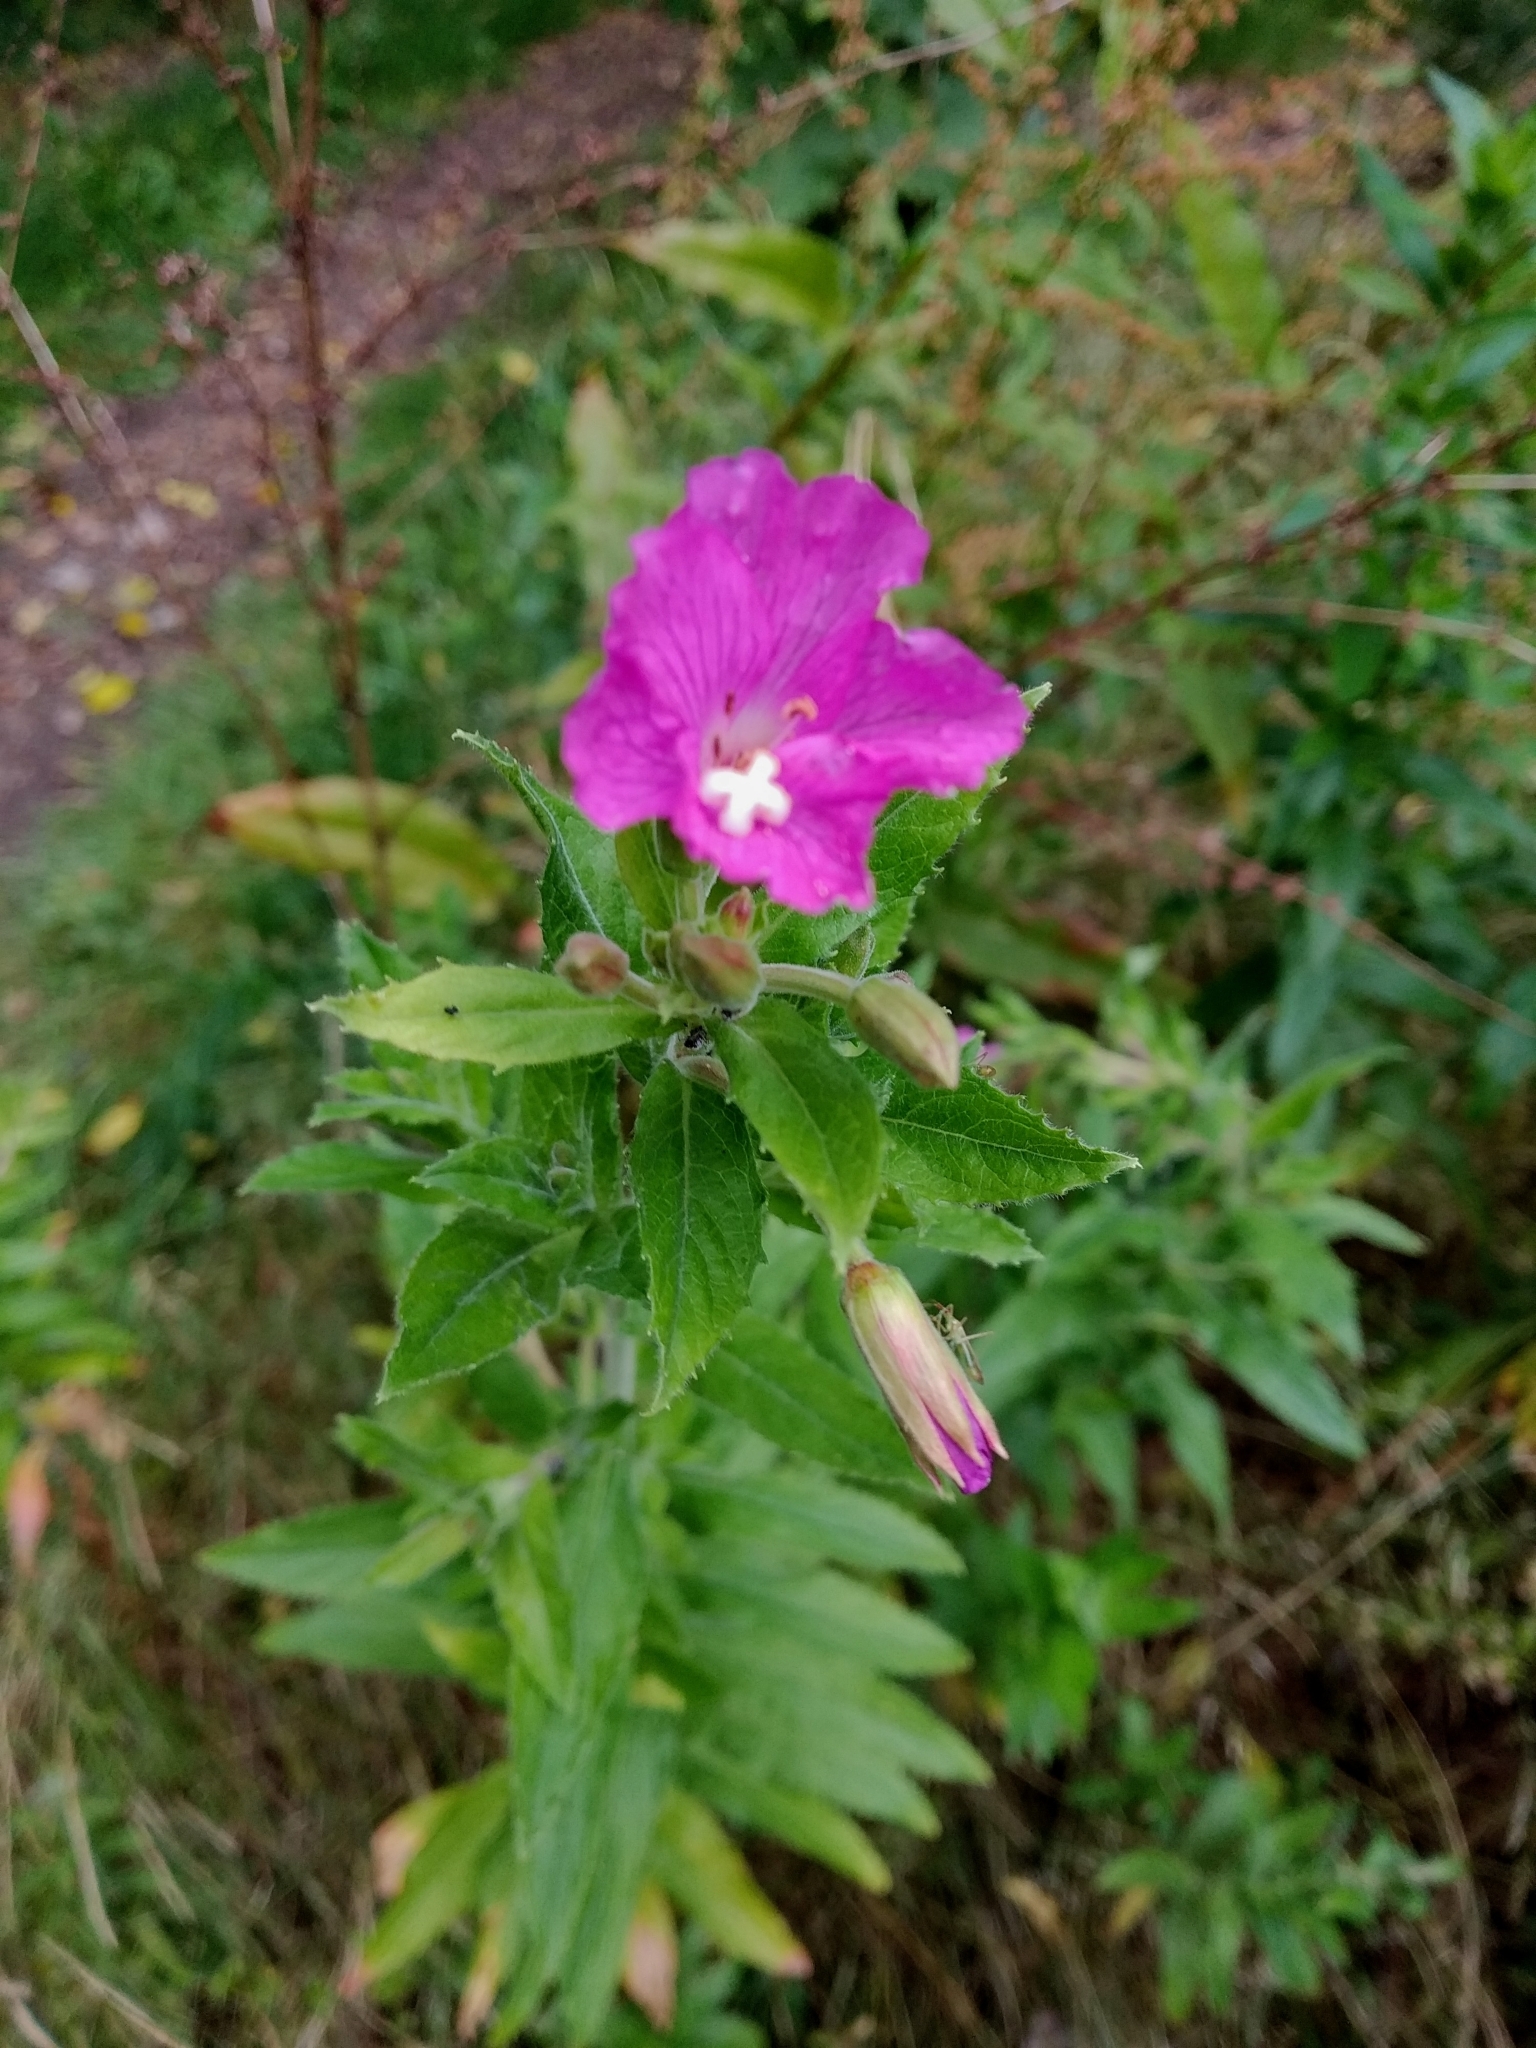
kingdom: Plantae
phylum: Tracheophyta
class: Magnoliopsida
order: Myrtales
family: Onagraceae
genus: Epilobium
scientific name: Epilobium hirsutum
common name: Great willowherb
